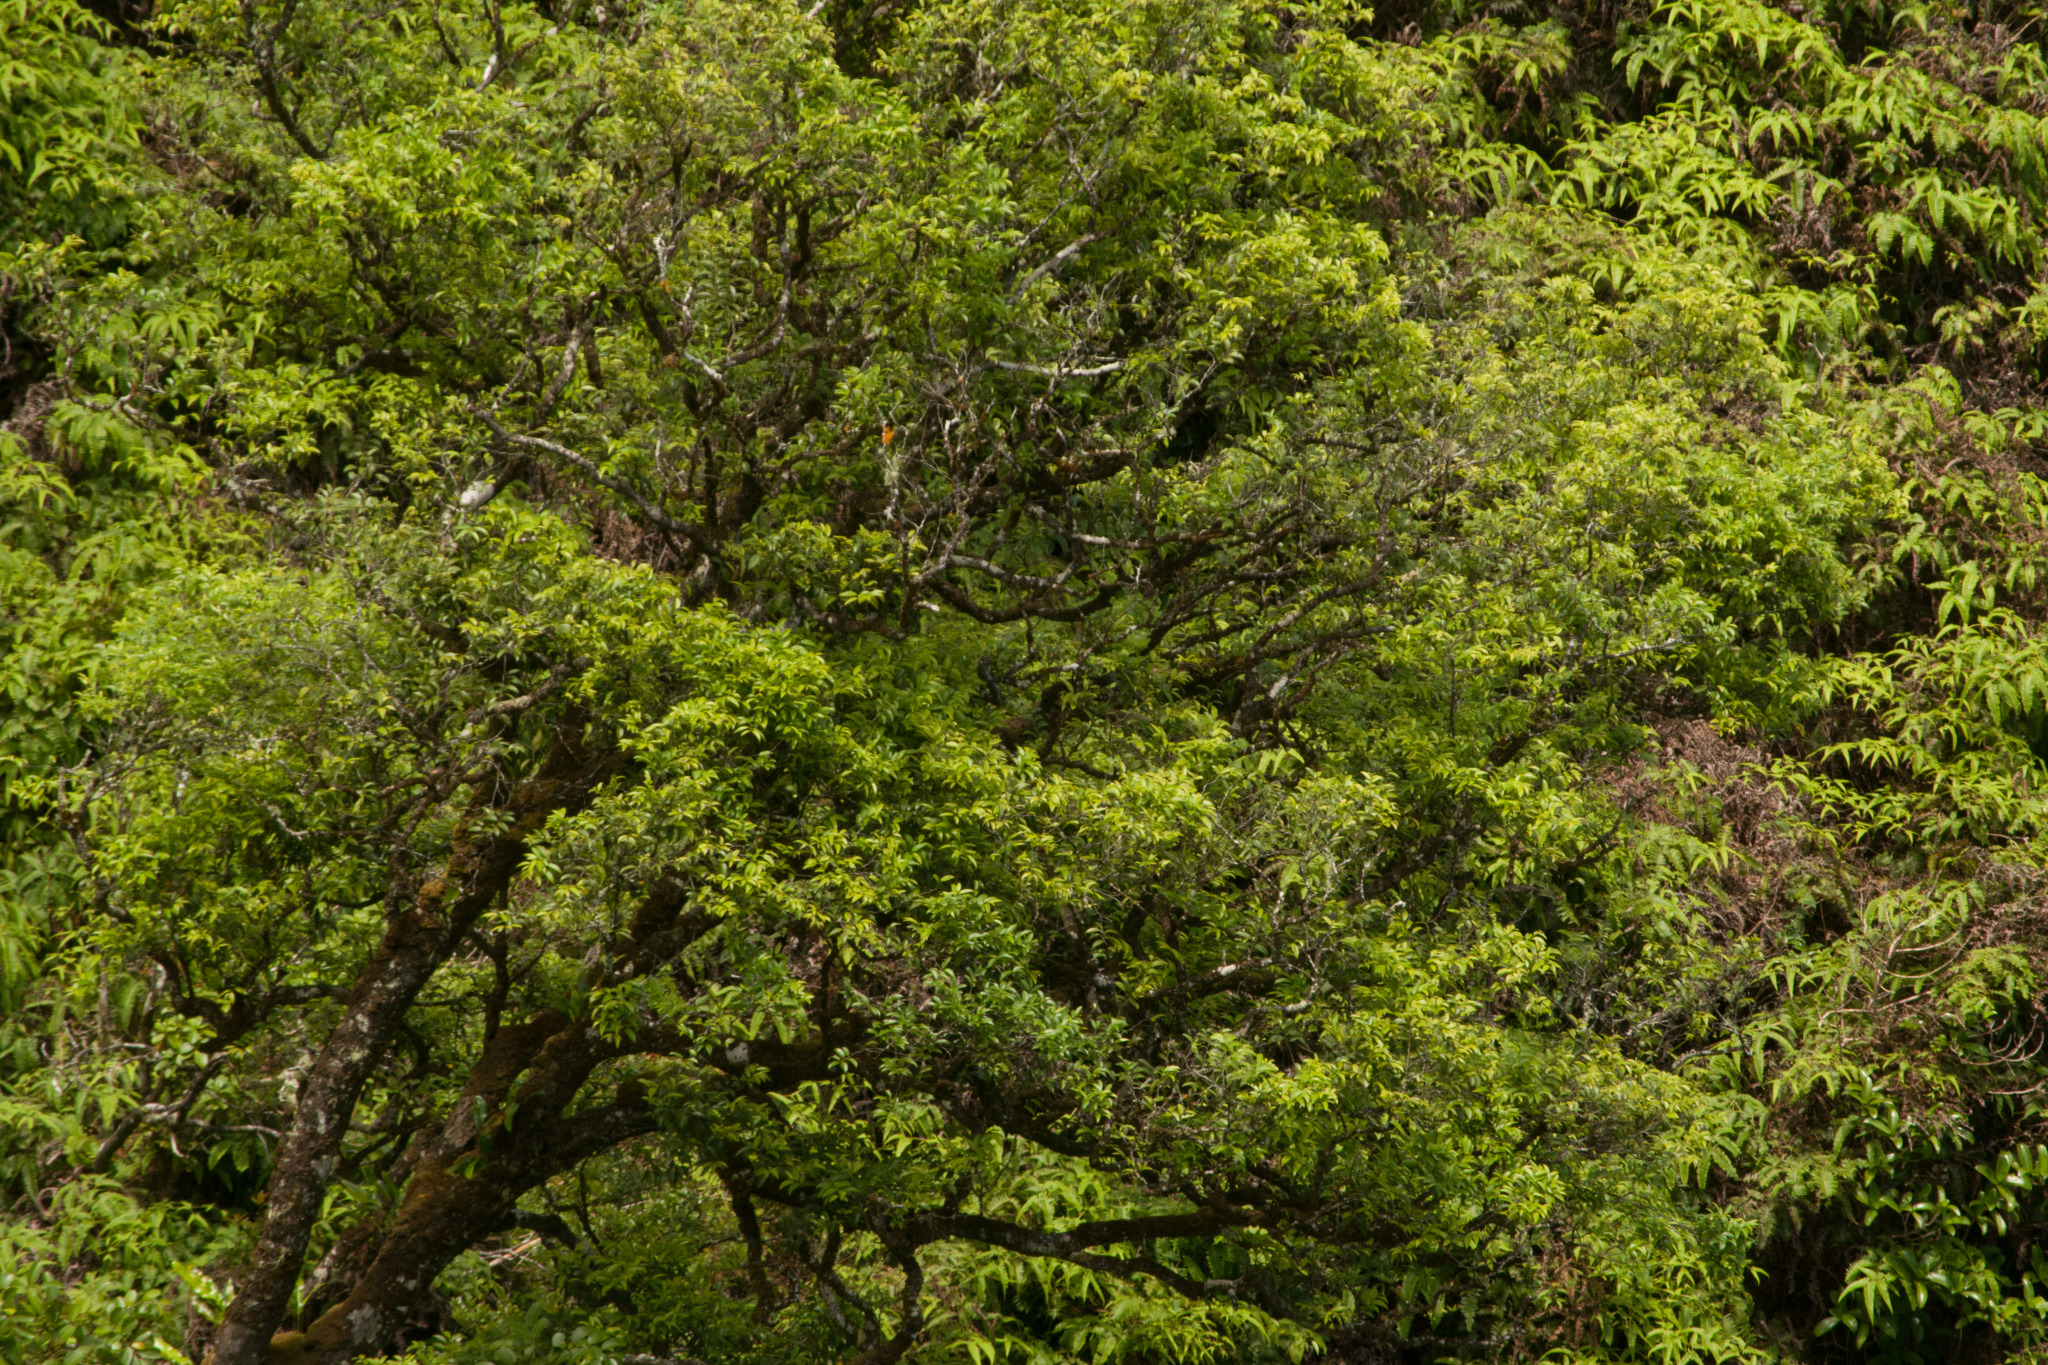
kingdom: Plantae
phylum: Tracheophyta
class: Magnoliopsida
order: Apiales
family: Araliaceae
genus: Polyscias
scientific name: Polyscias oahuensis
